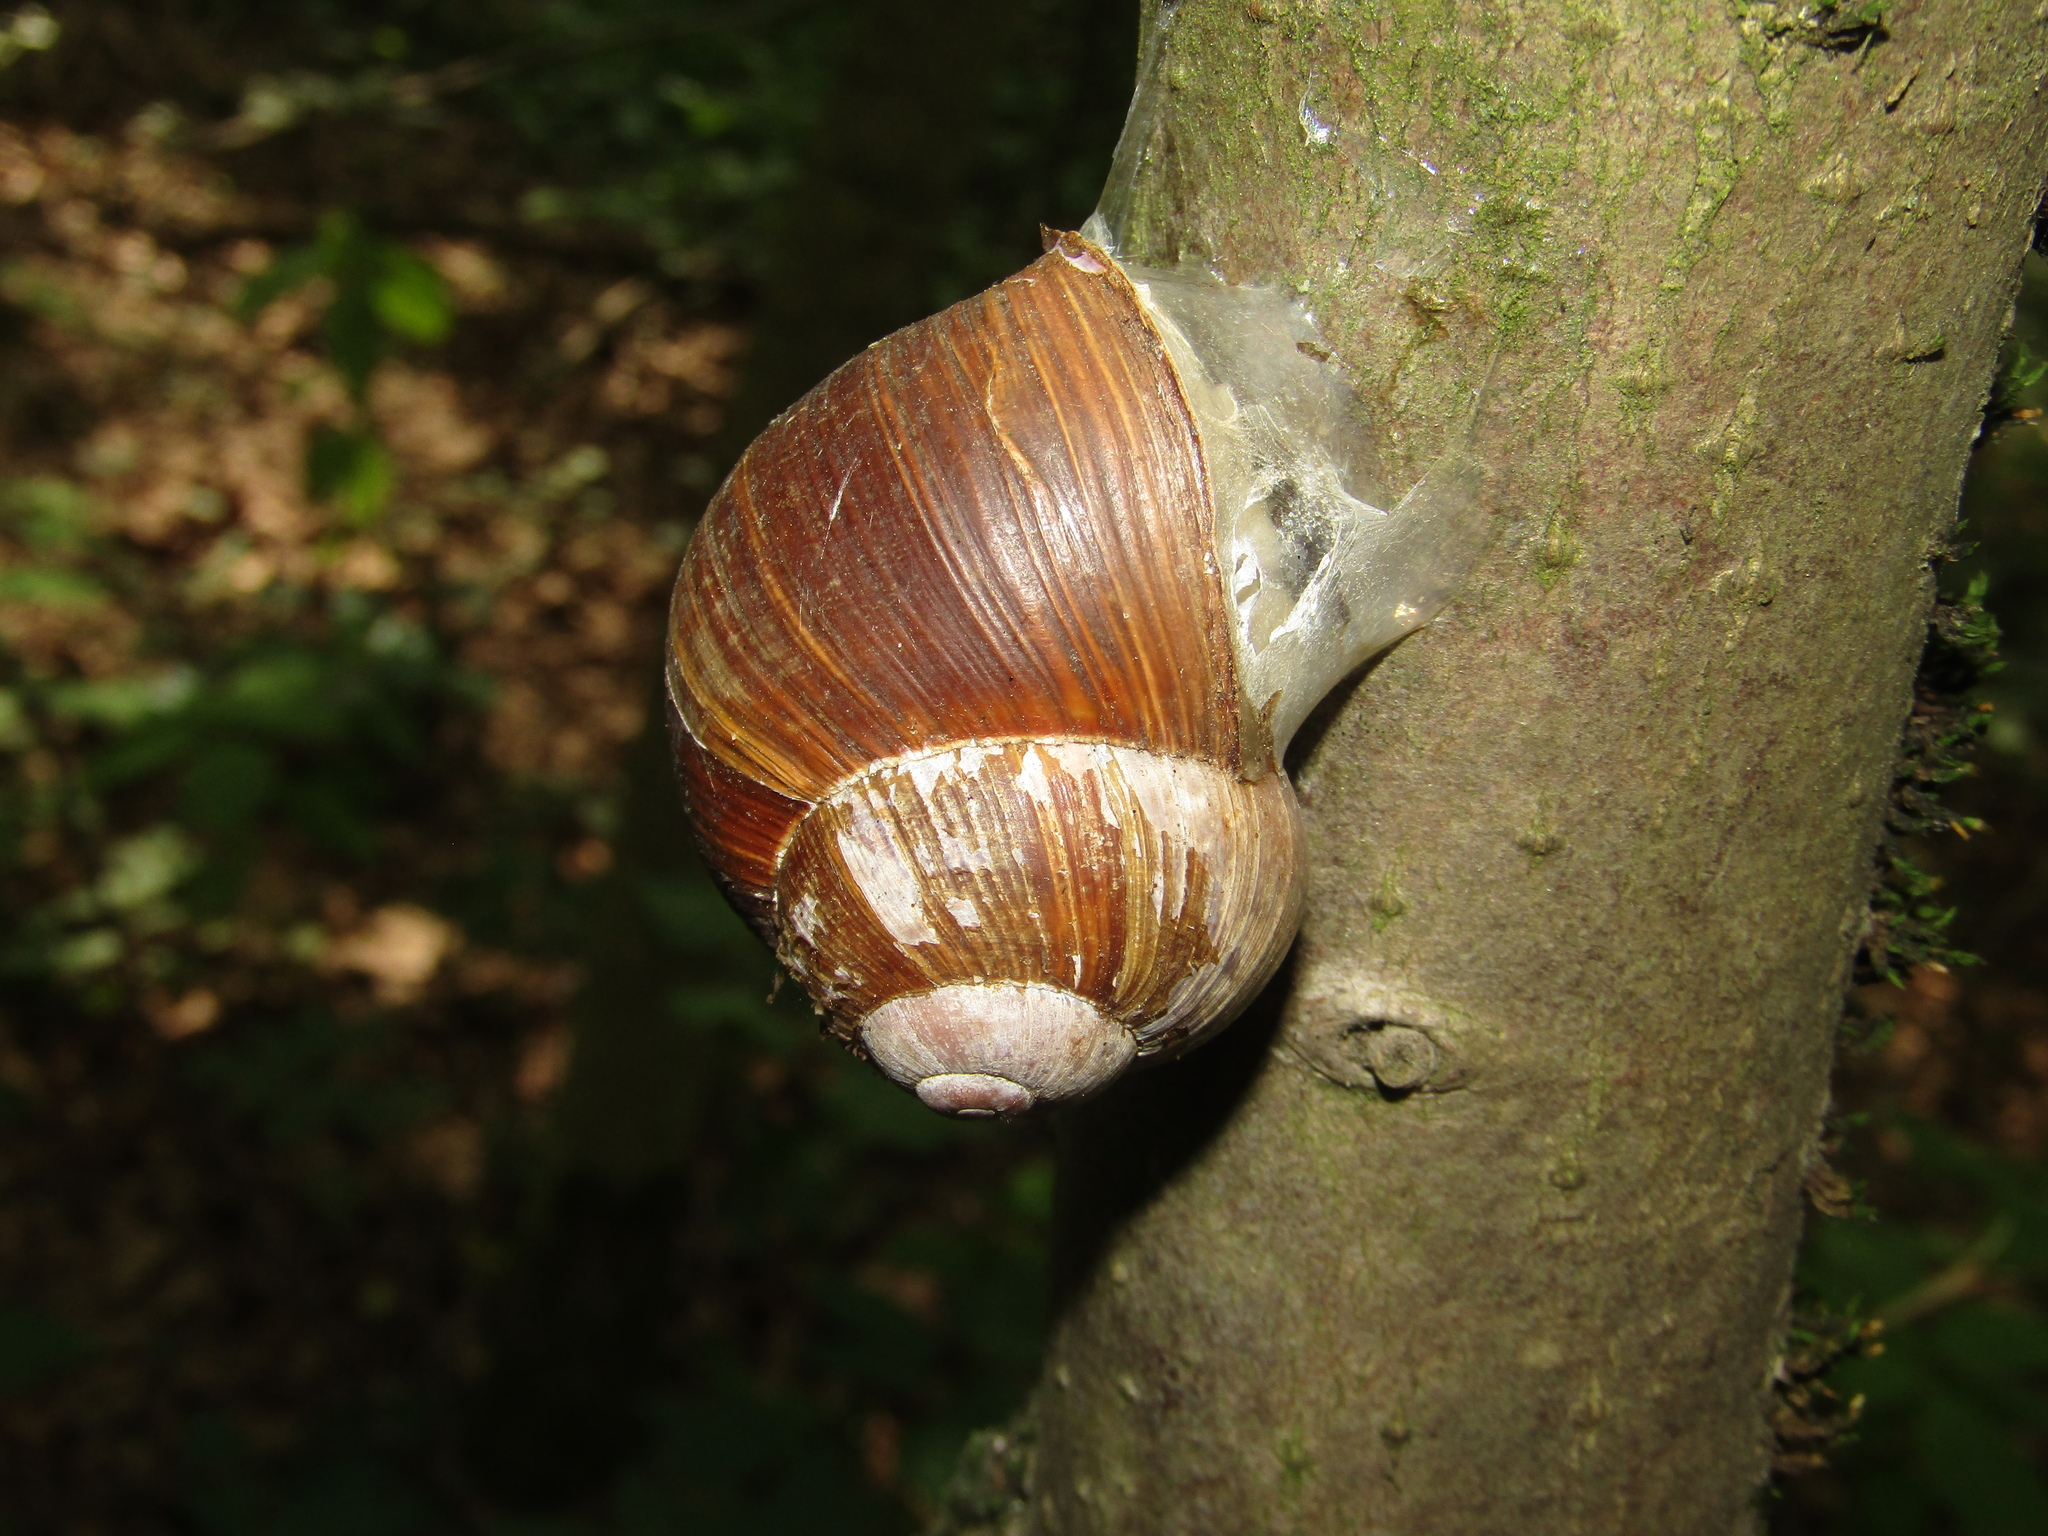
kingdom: Animalia
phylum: Mollusca
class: Gastropoda
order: Stylommatophora
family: Helicidae
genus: Helix
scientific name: Helix pomatia
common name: Roman snail
